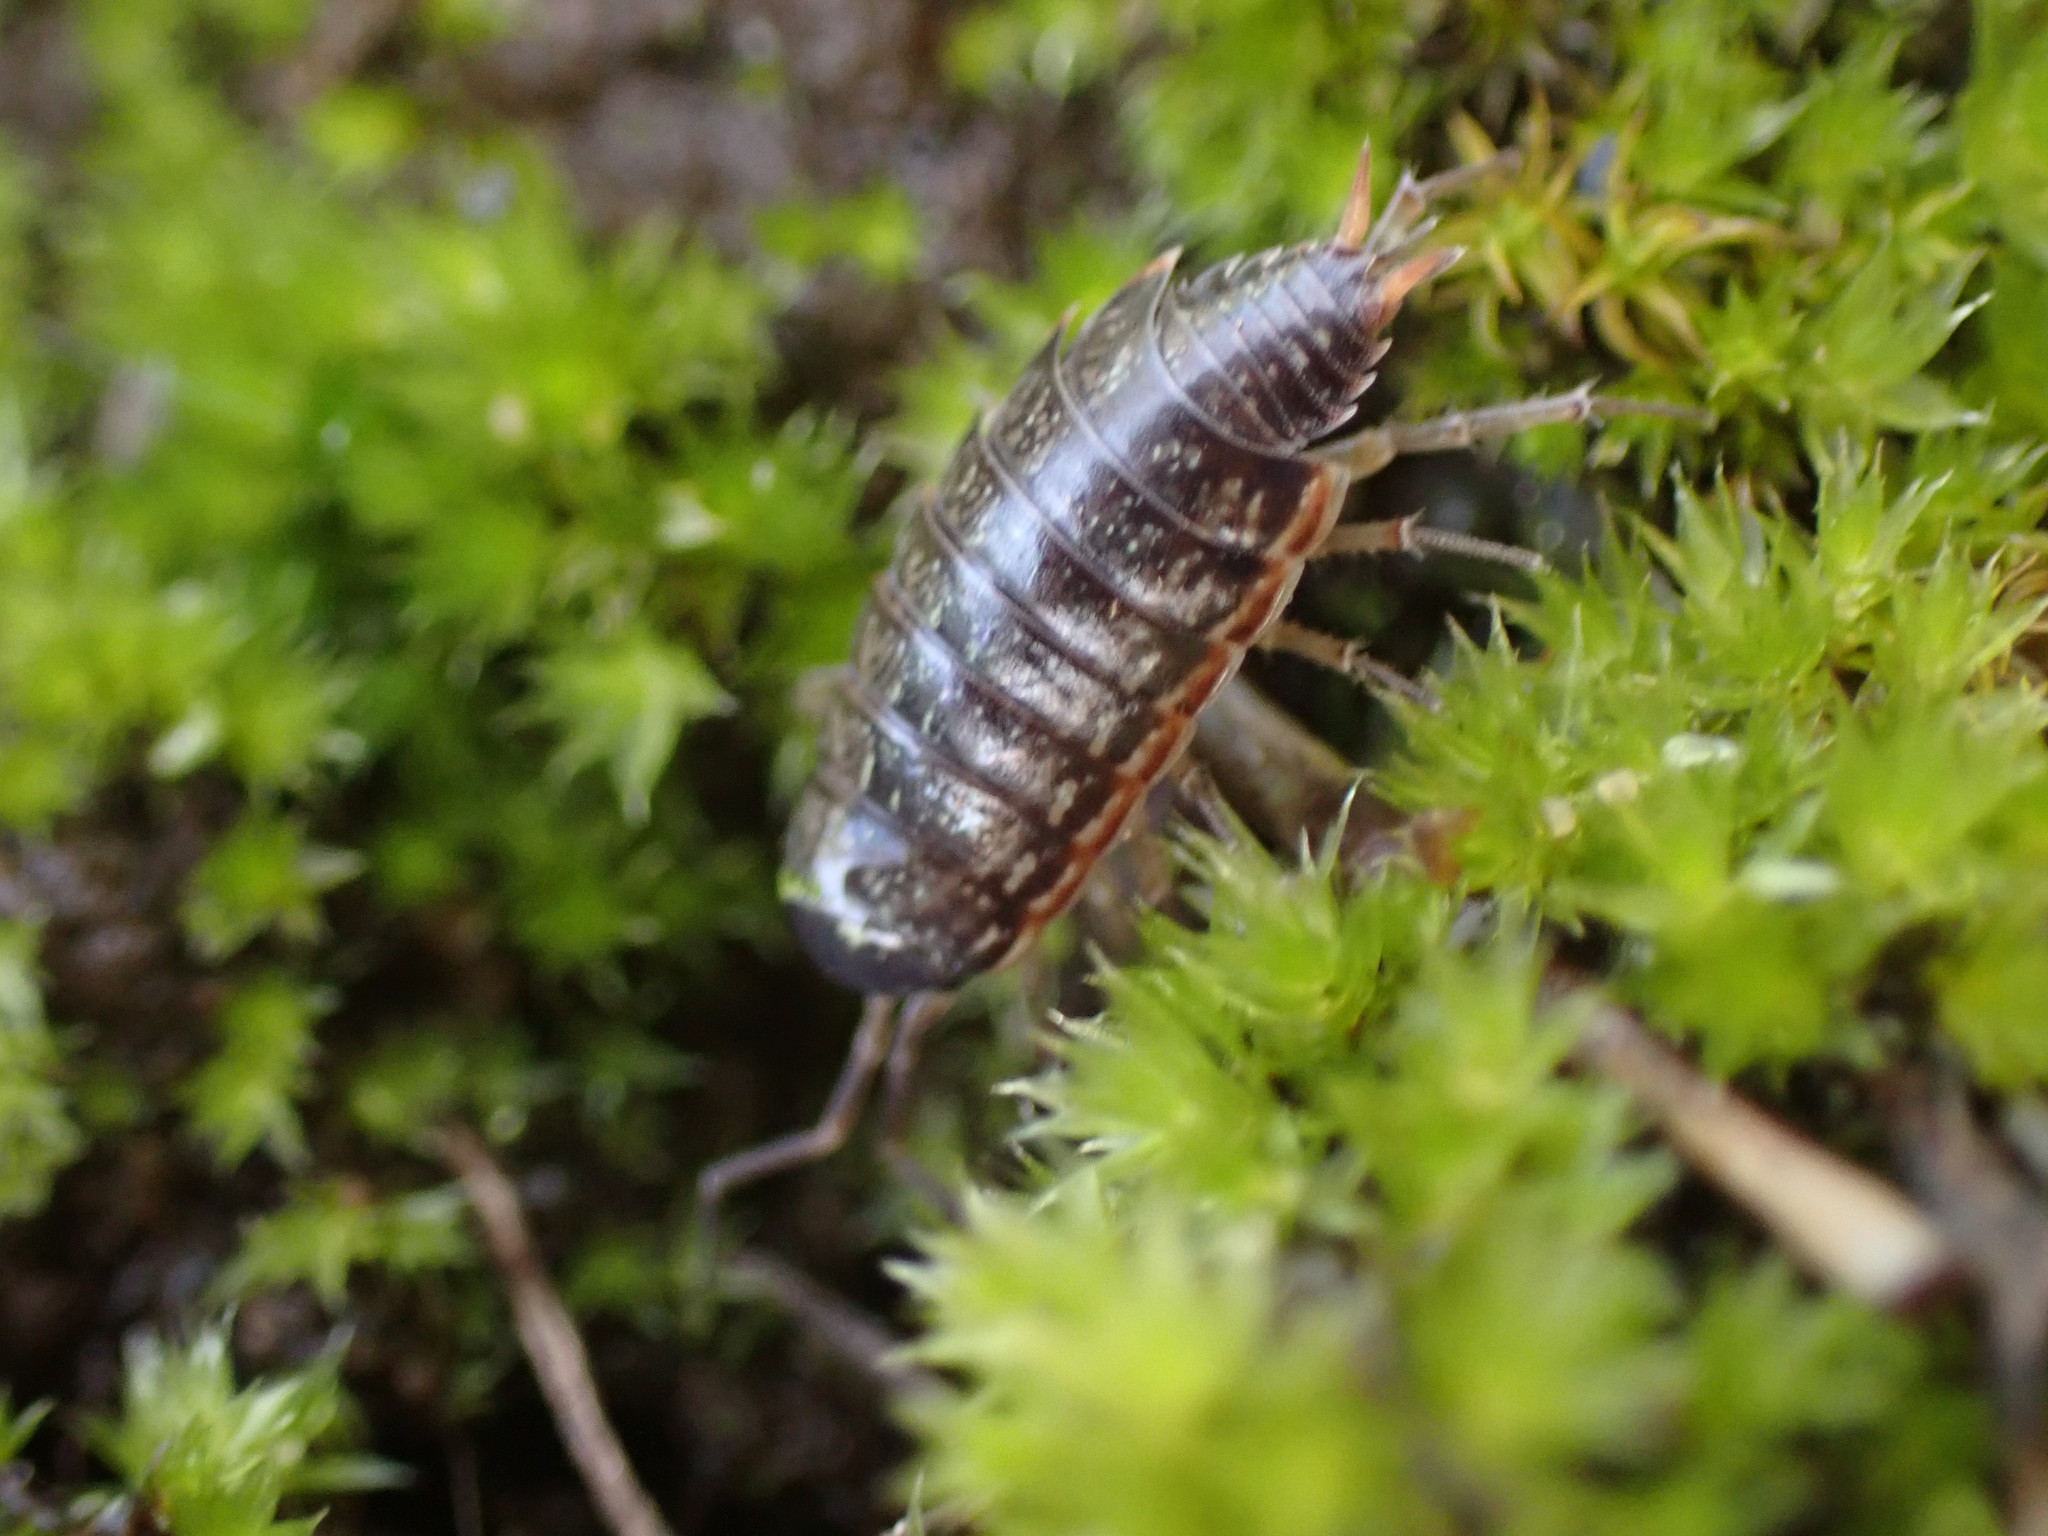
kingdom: Animalia
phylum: Arthropoda
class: Malacostraca
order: Isopoda
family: Philosciidae
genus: Philoscia
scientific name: Philoscia muscorum
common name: Common striped woodlouse
